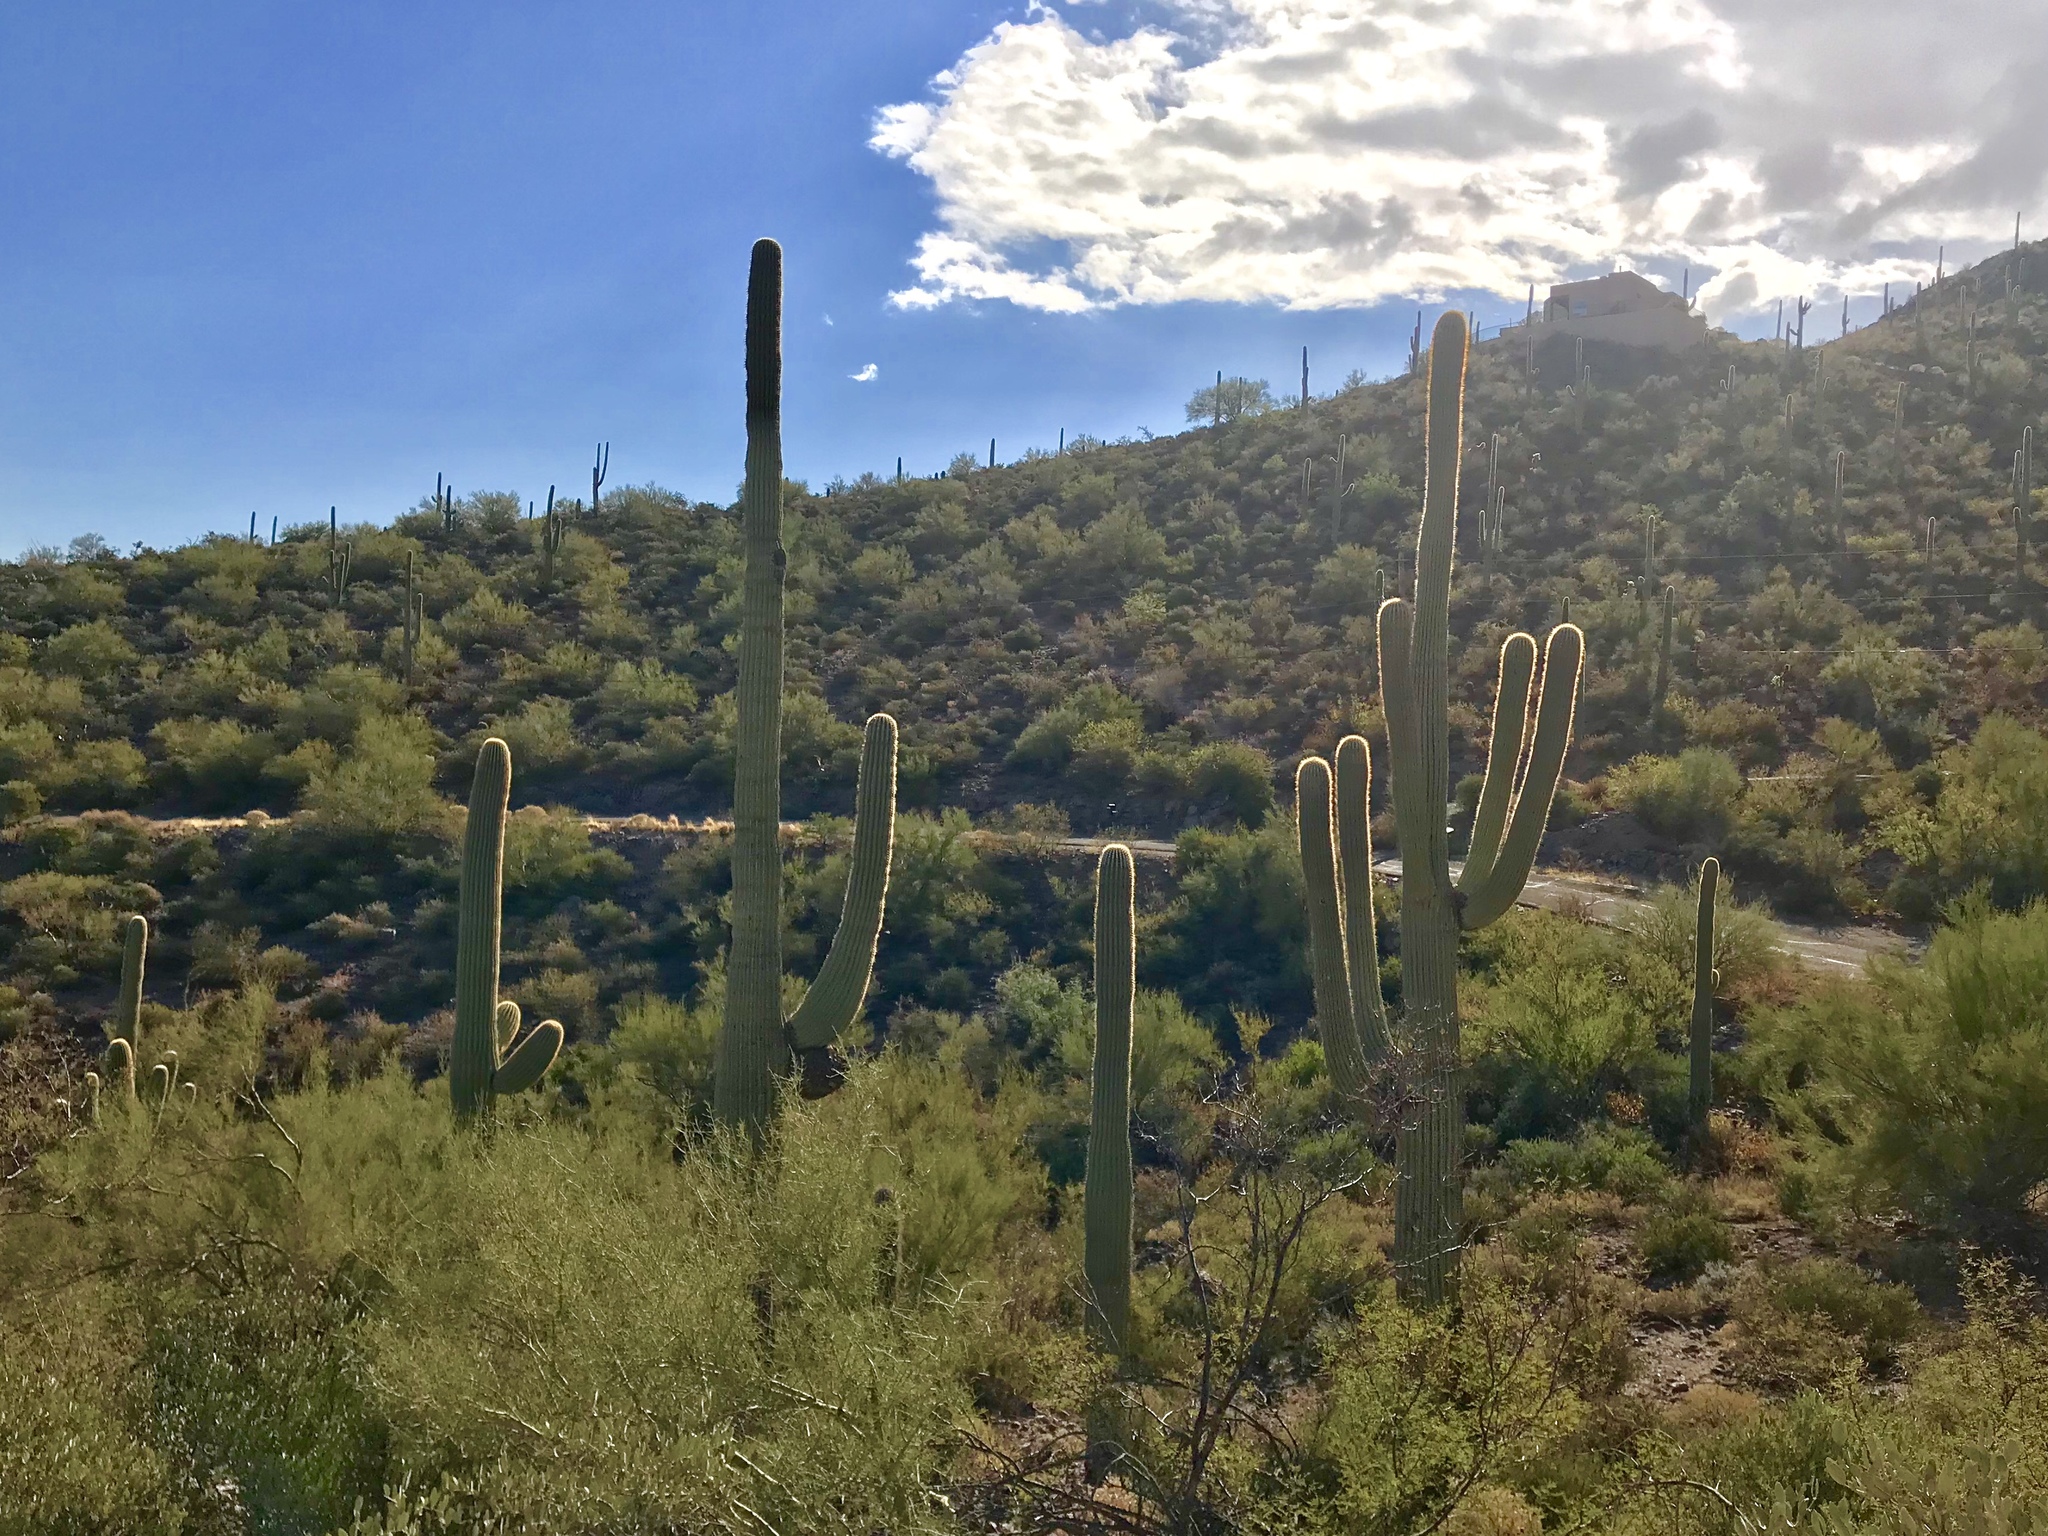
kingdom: Plantae
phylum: Tracheophyta
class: Magnoliopsida
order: Caryophyllales
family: Cactaceae
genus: Carnegiea
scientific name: Carnegiea gigantea
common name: Saguaro
